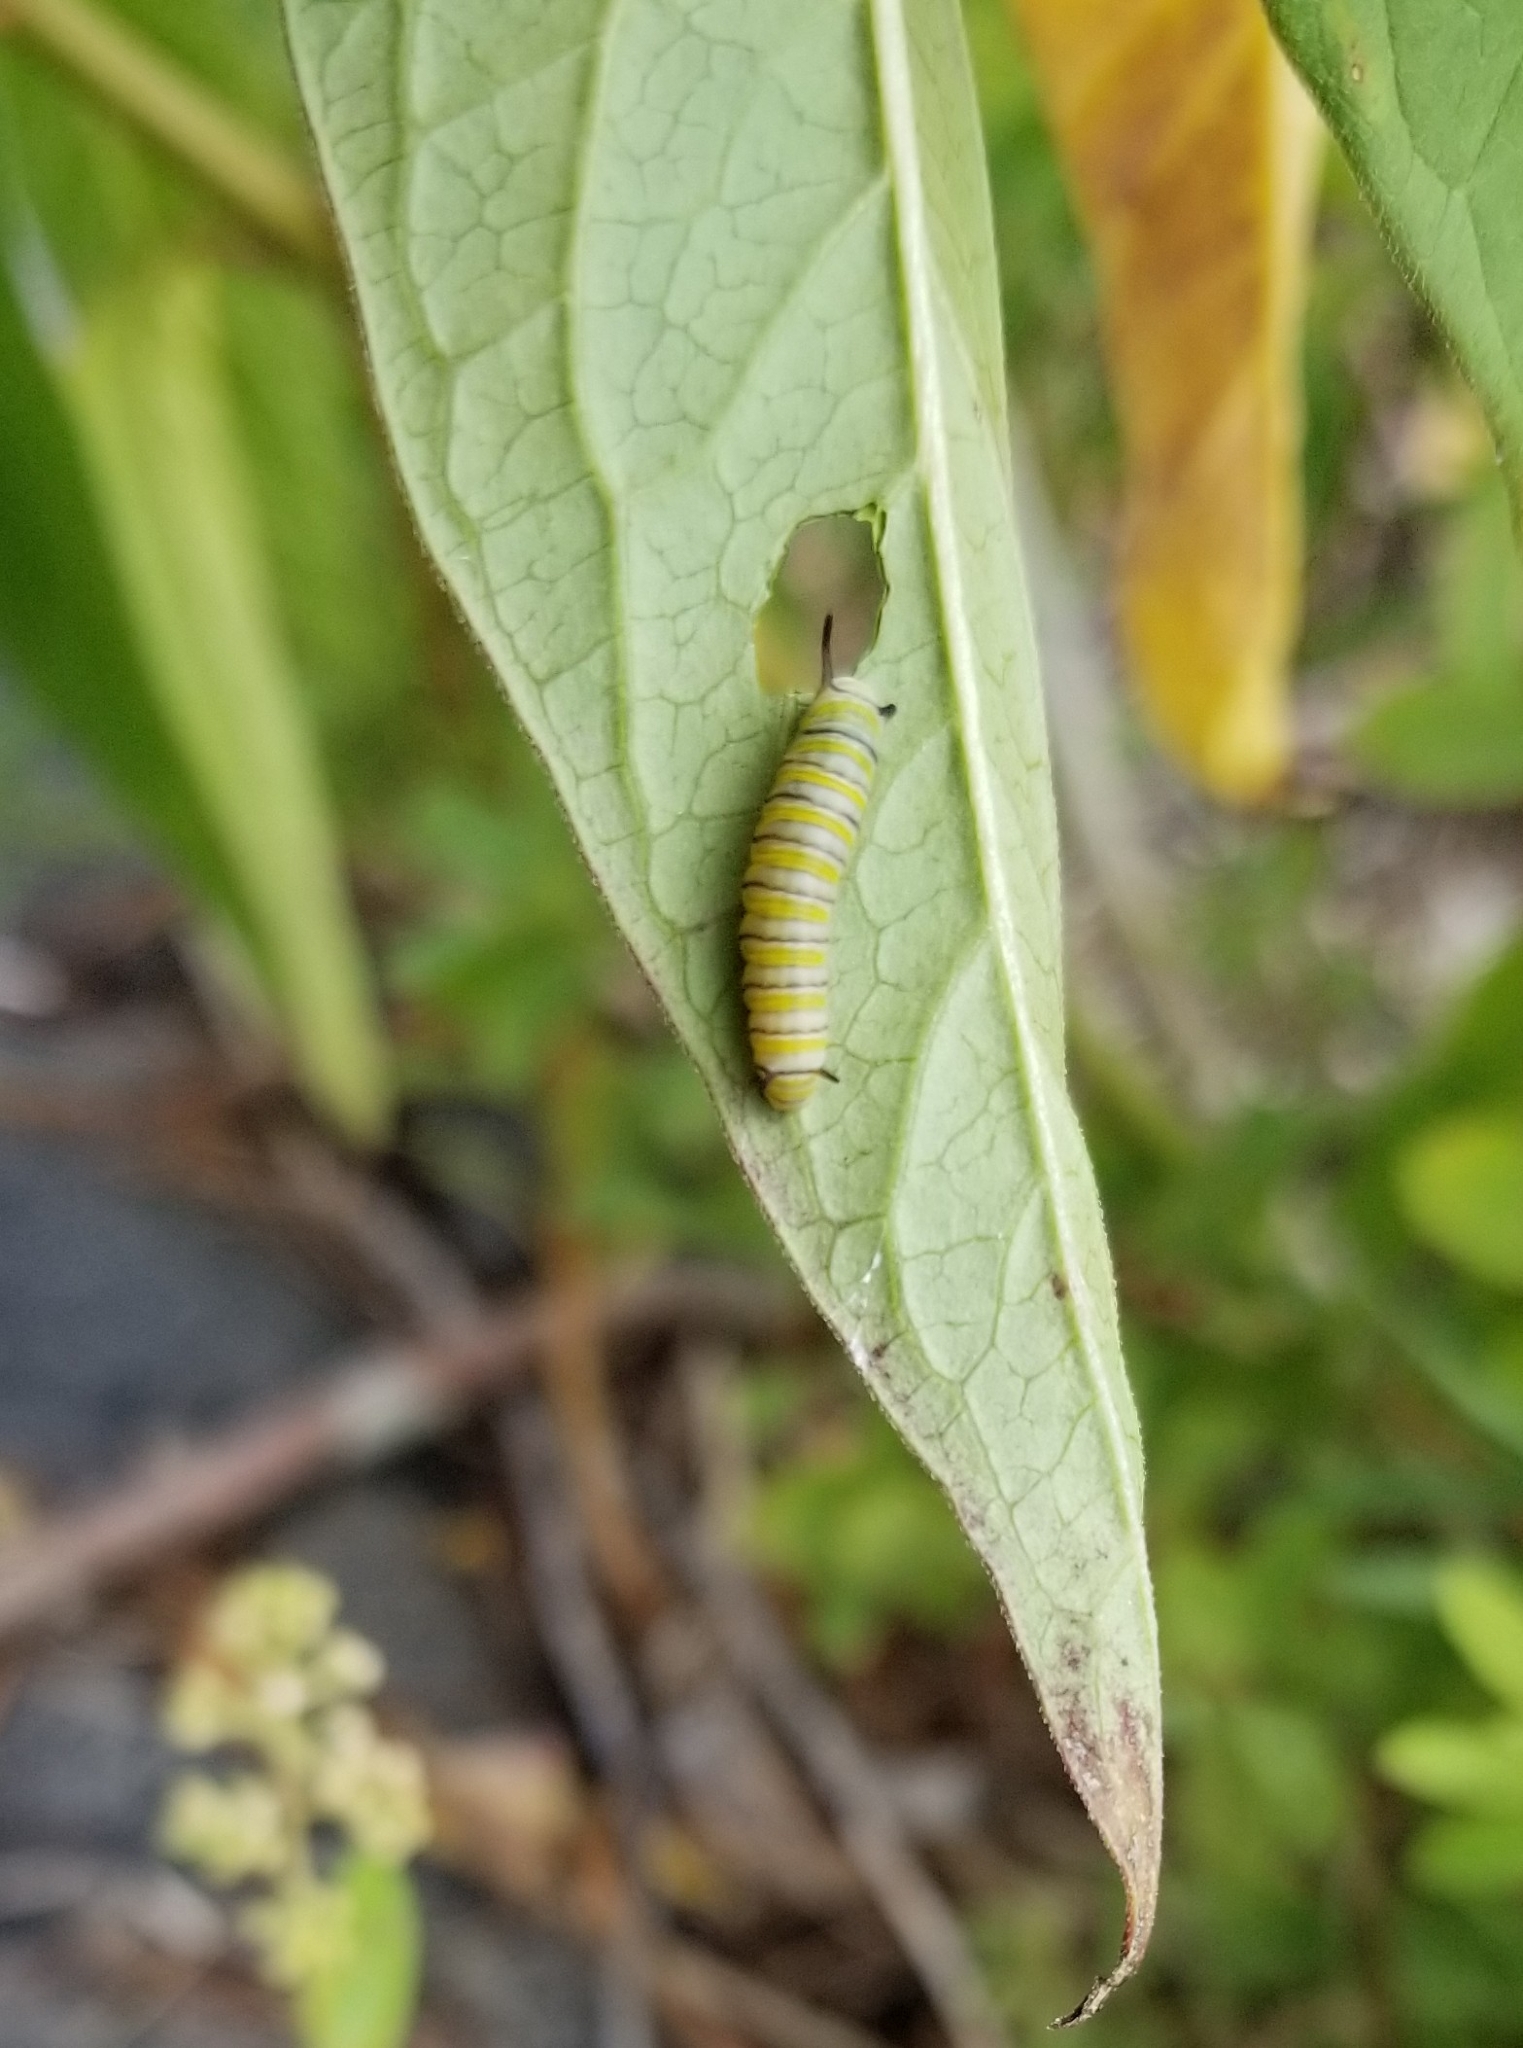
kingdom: Animalia
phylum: Arthropoda
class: Insecta
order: Lepidoptera
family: Nymphalidae
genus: Danaus
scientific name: Danaus plexippus
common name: Monarch
